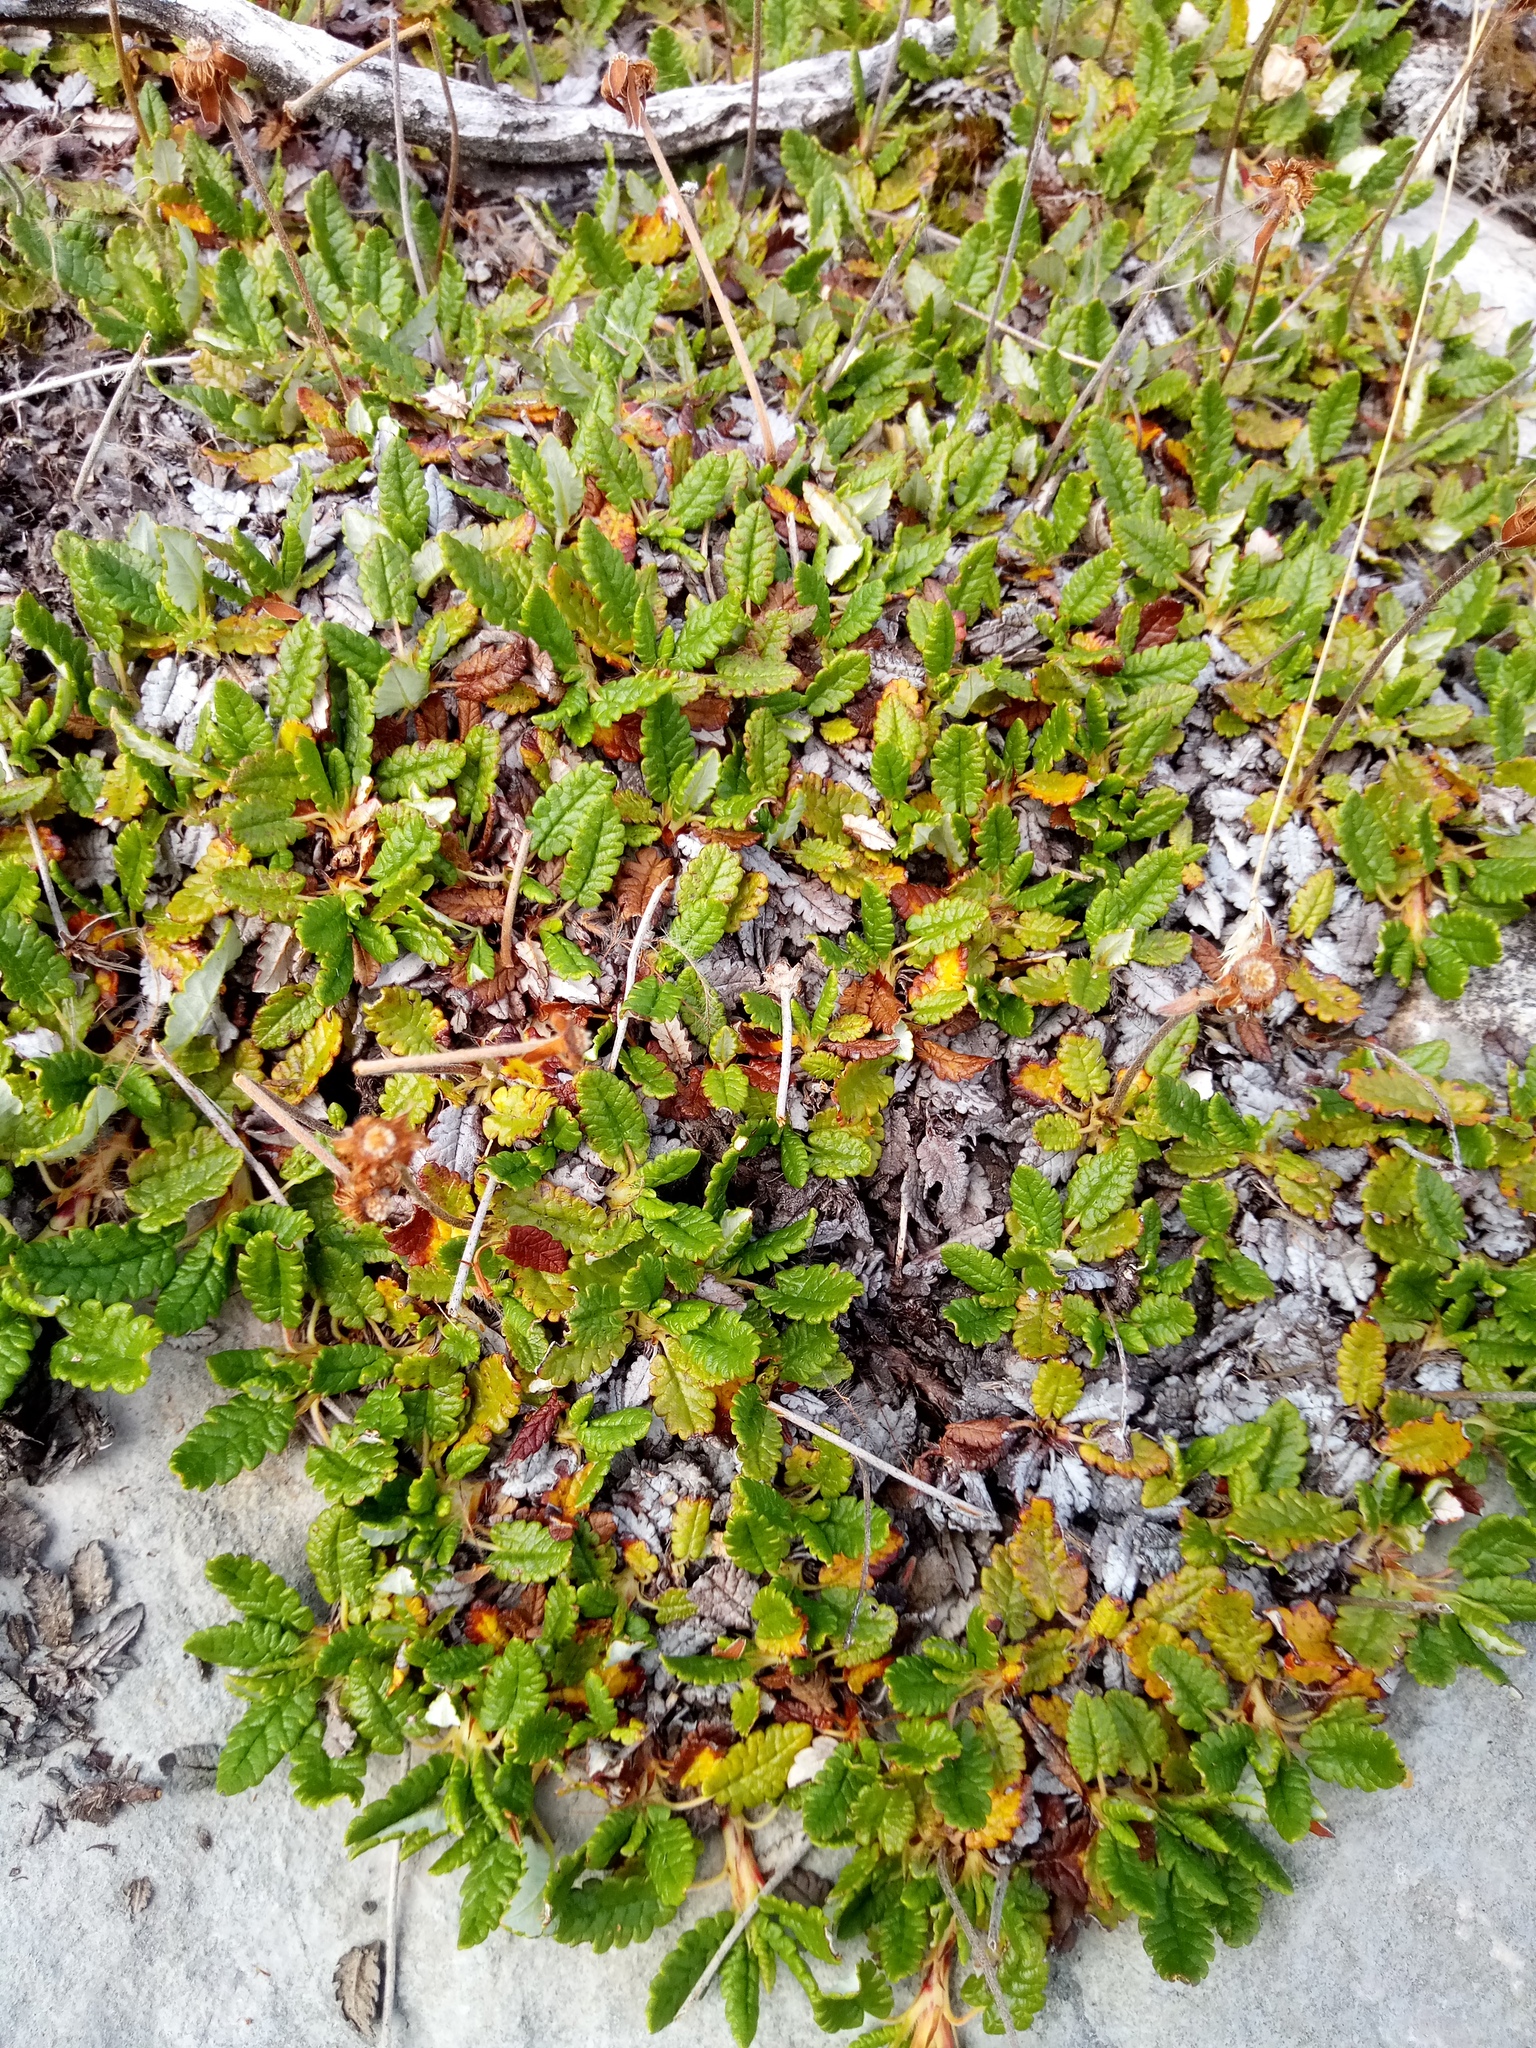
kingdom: Plantae
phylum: Tracheophyta
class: Magnoliopsida
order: Rosales
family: Rosaceae
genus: Dryas
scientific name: Dryas octopetala
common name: Eight-petal mountain-avens
